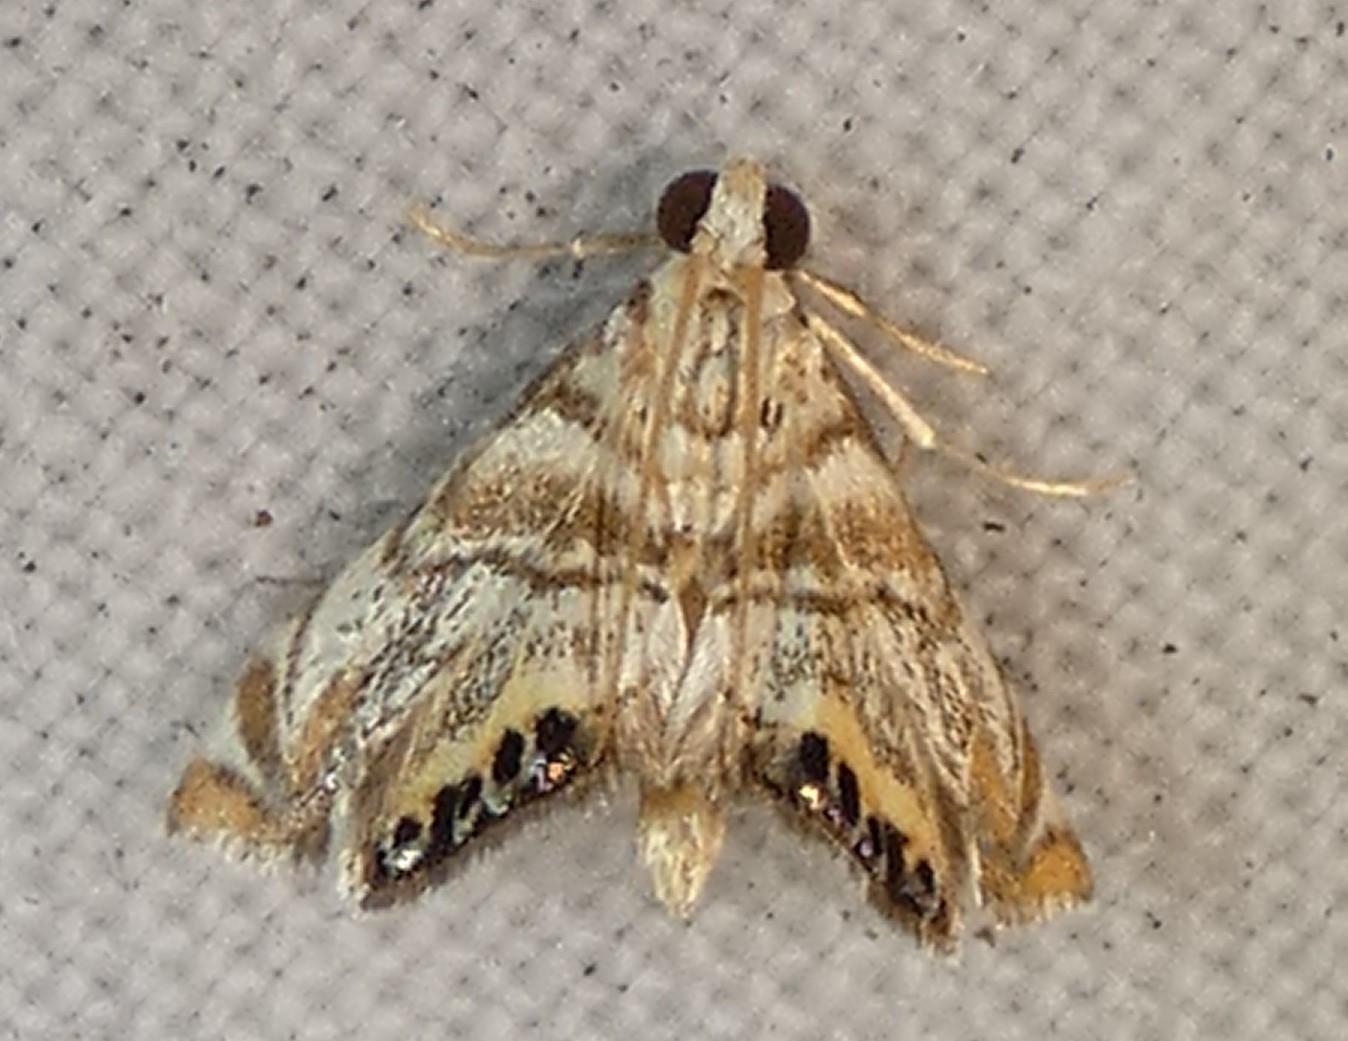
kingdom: Animalia
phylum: Arthropoda
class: Insecta
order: Lepidoptera
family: Crambidae
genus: Eoparargyractis
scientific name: Eoparargyractis irroratalis
